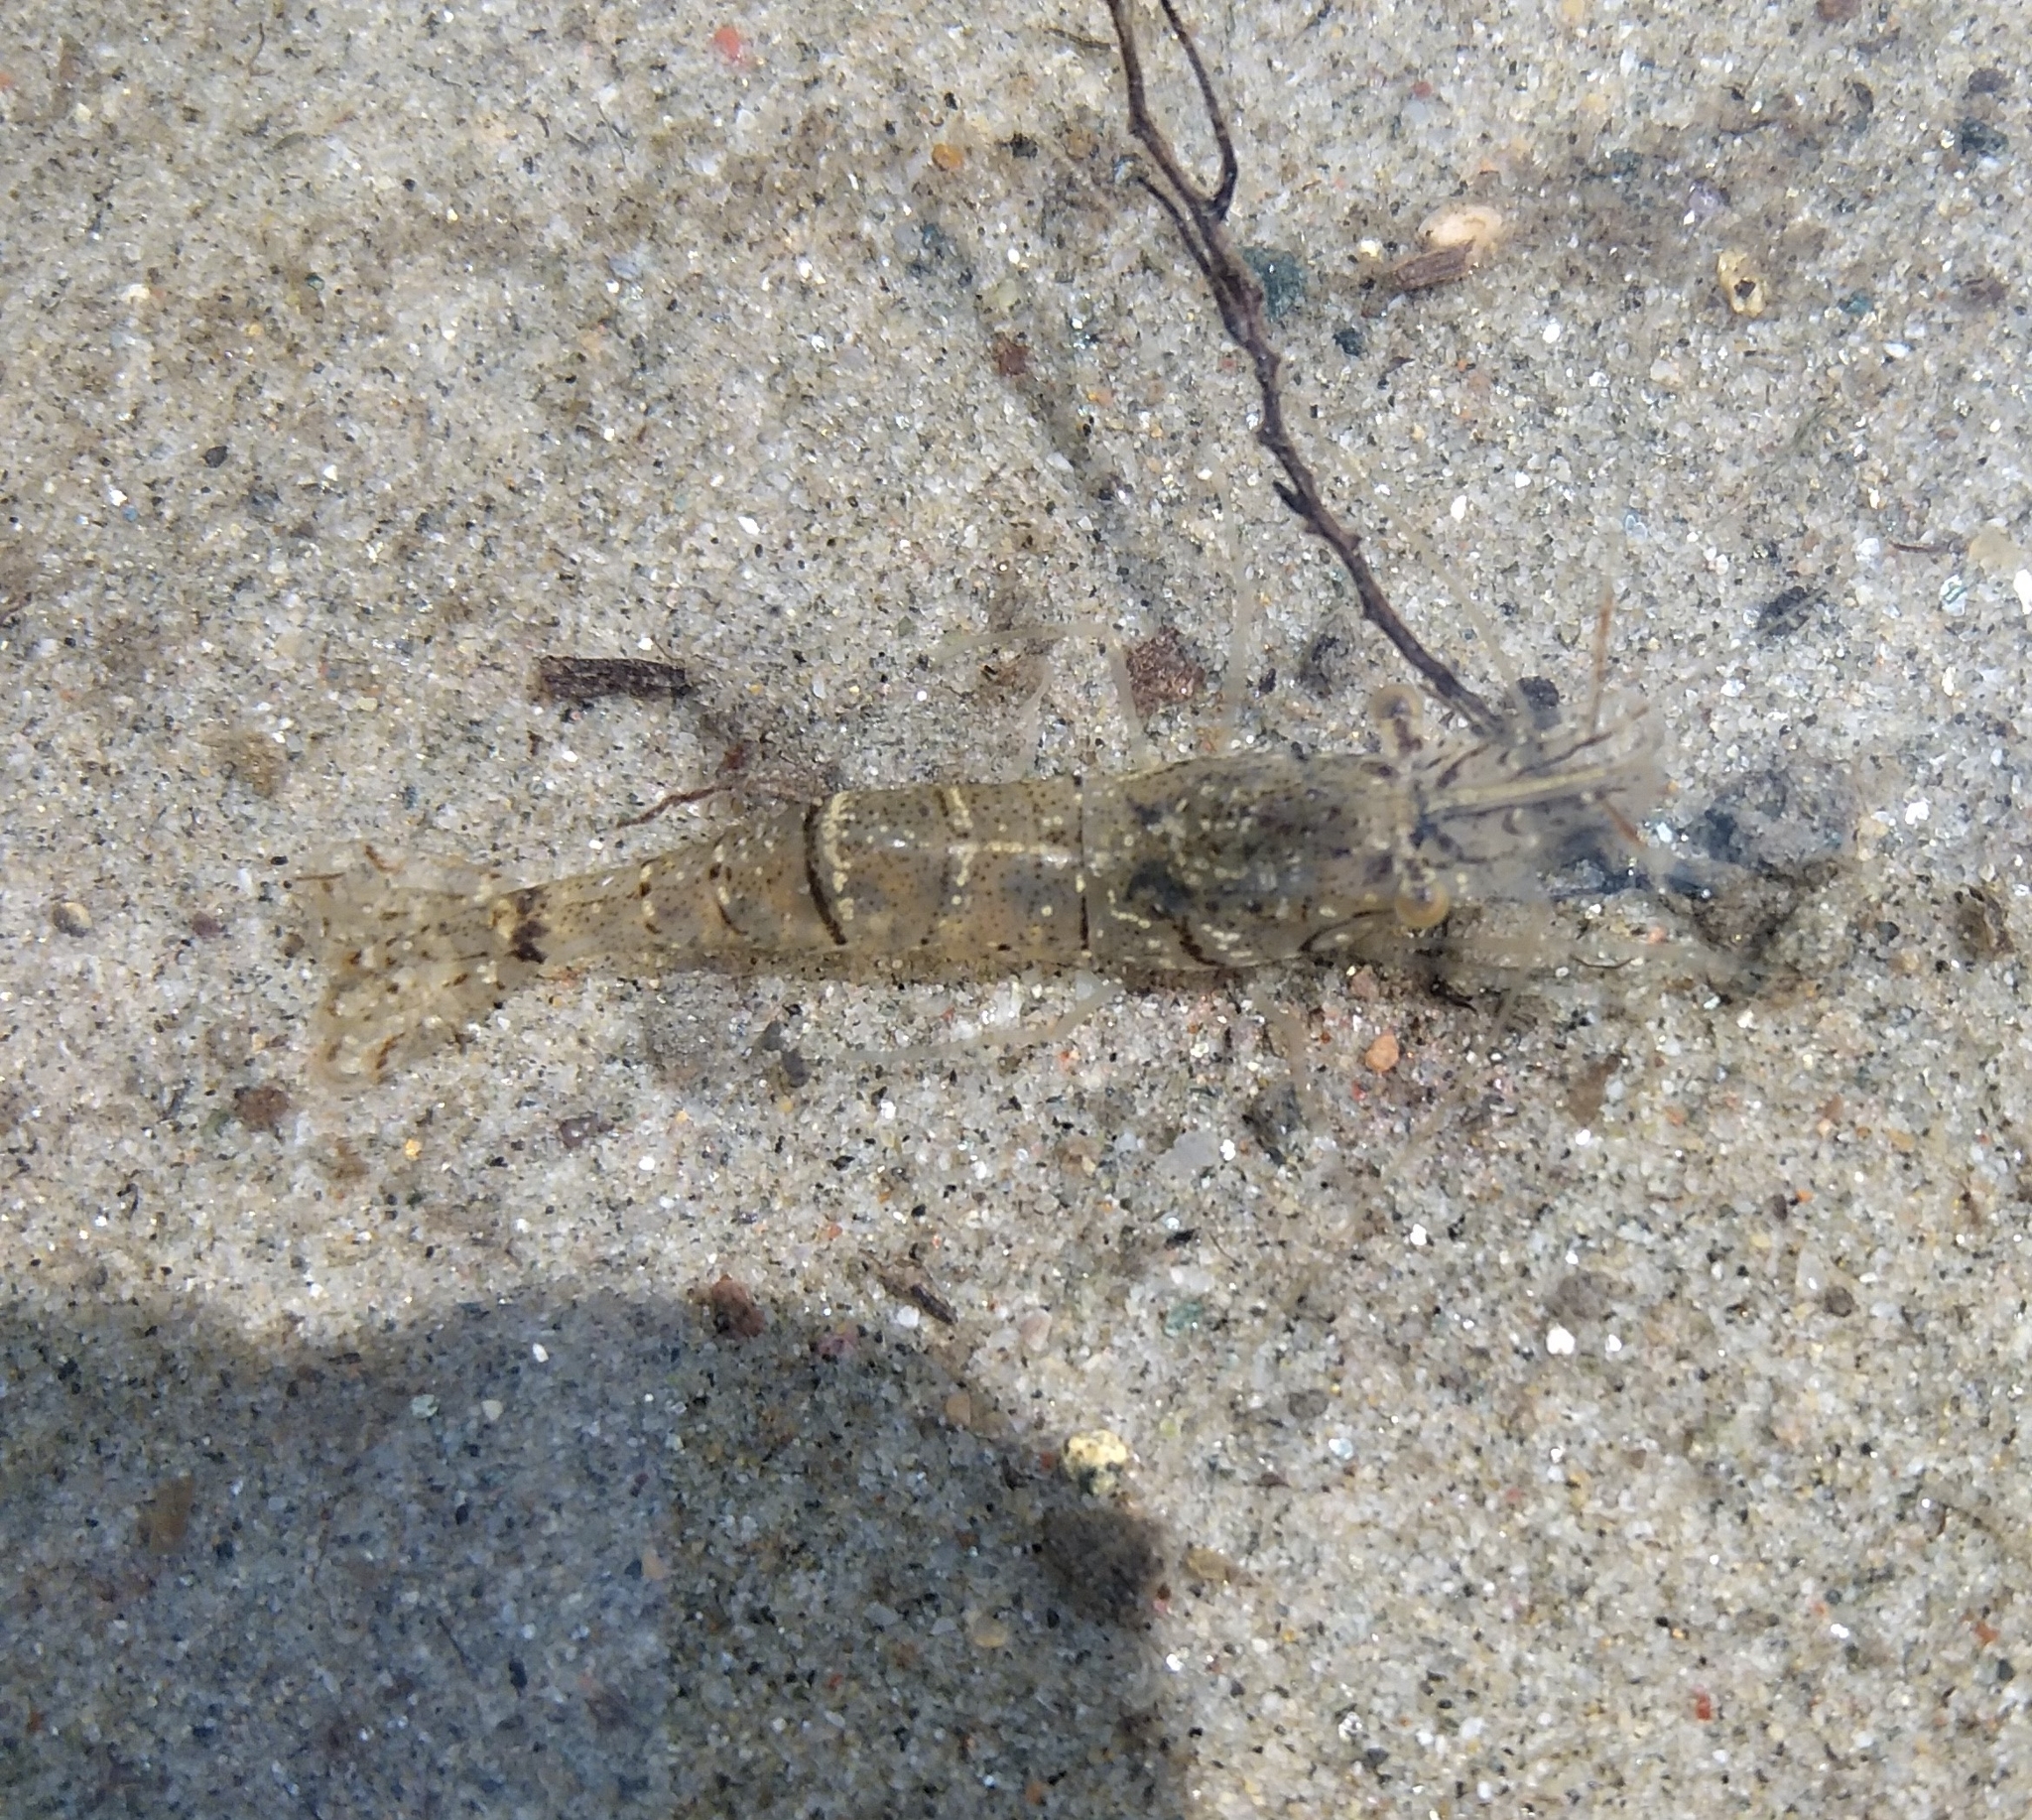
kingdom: Animalia
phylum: Arthropoda
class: Malacostraca
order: Decapoda
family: Palaemonidae
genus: Palaemon
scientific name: Palaemon antennarius
